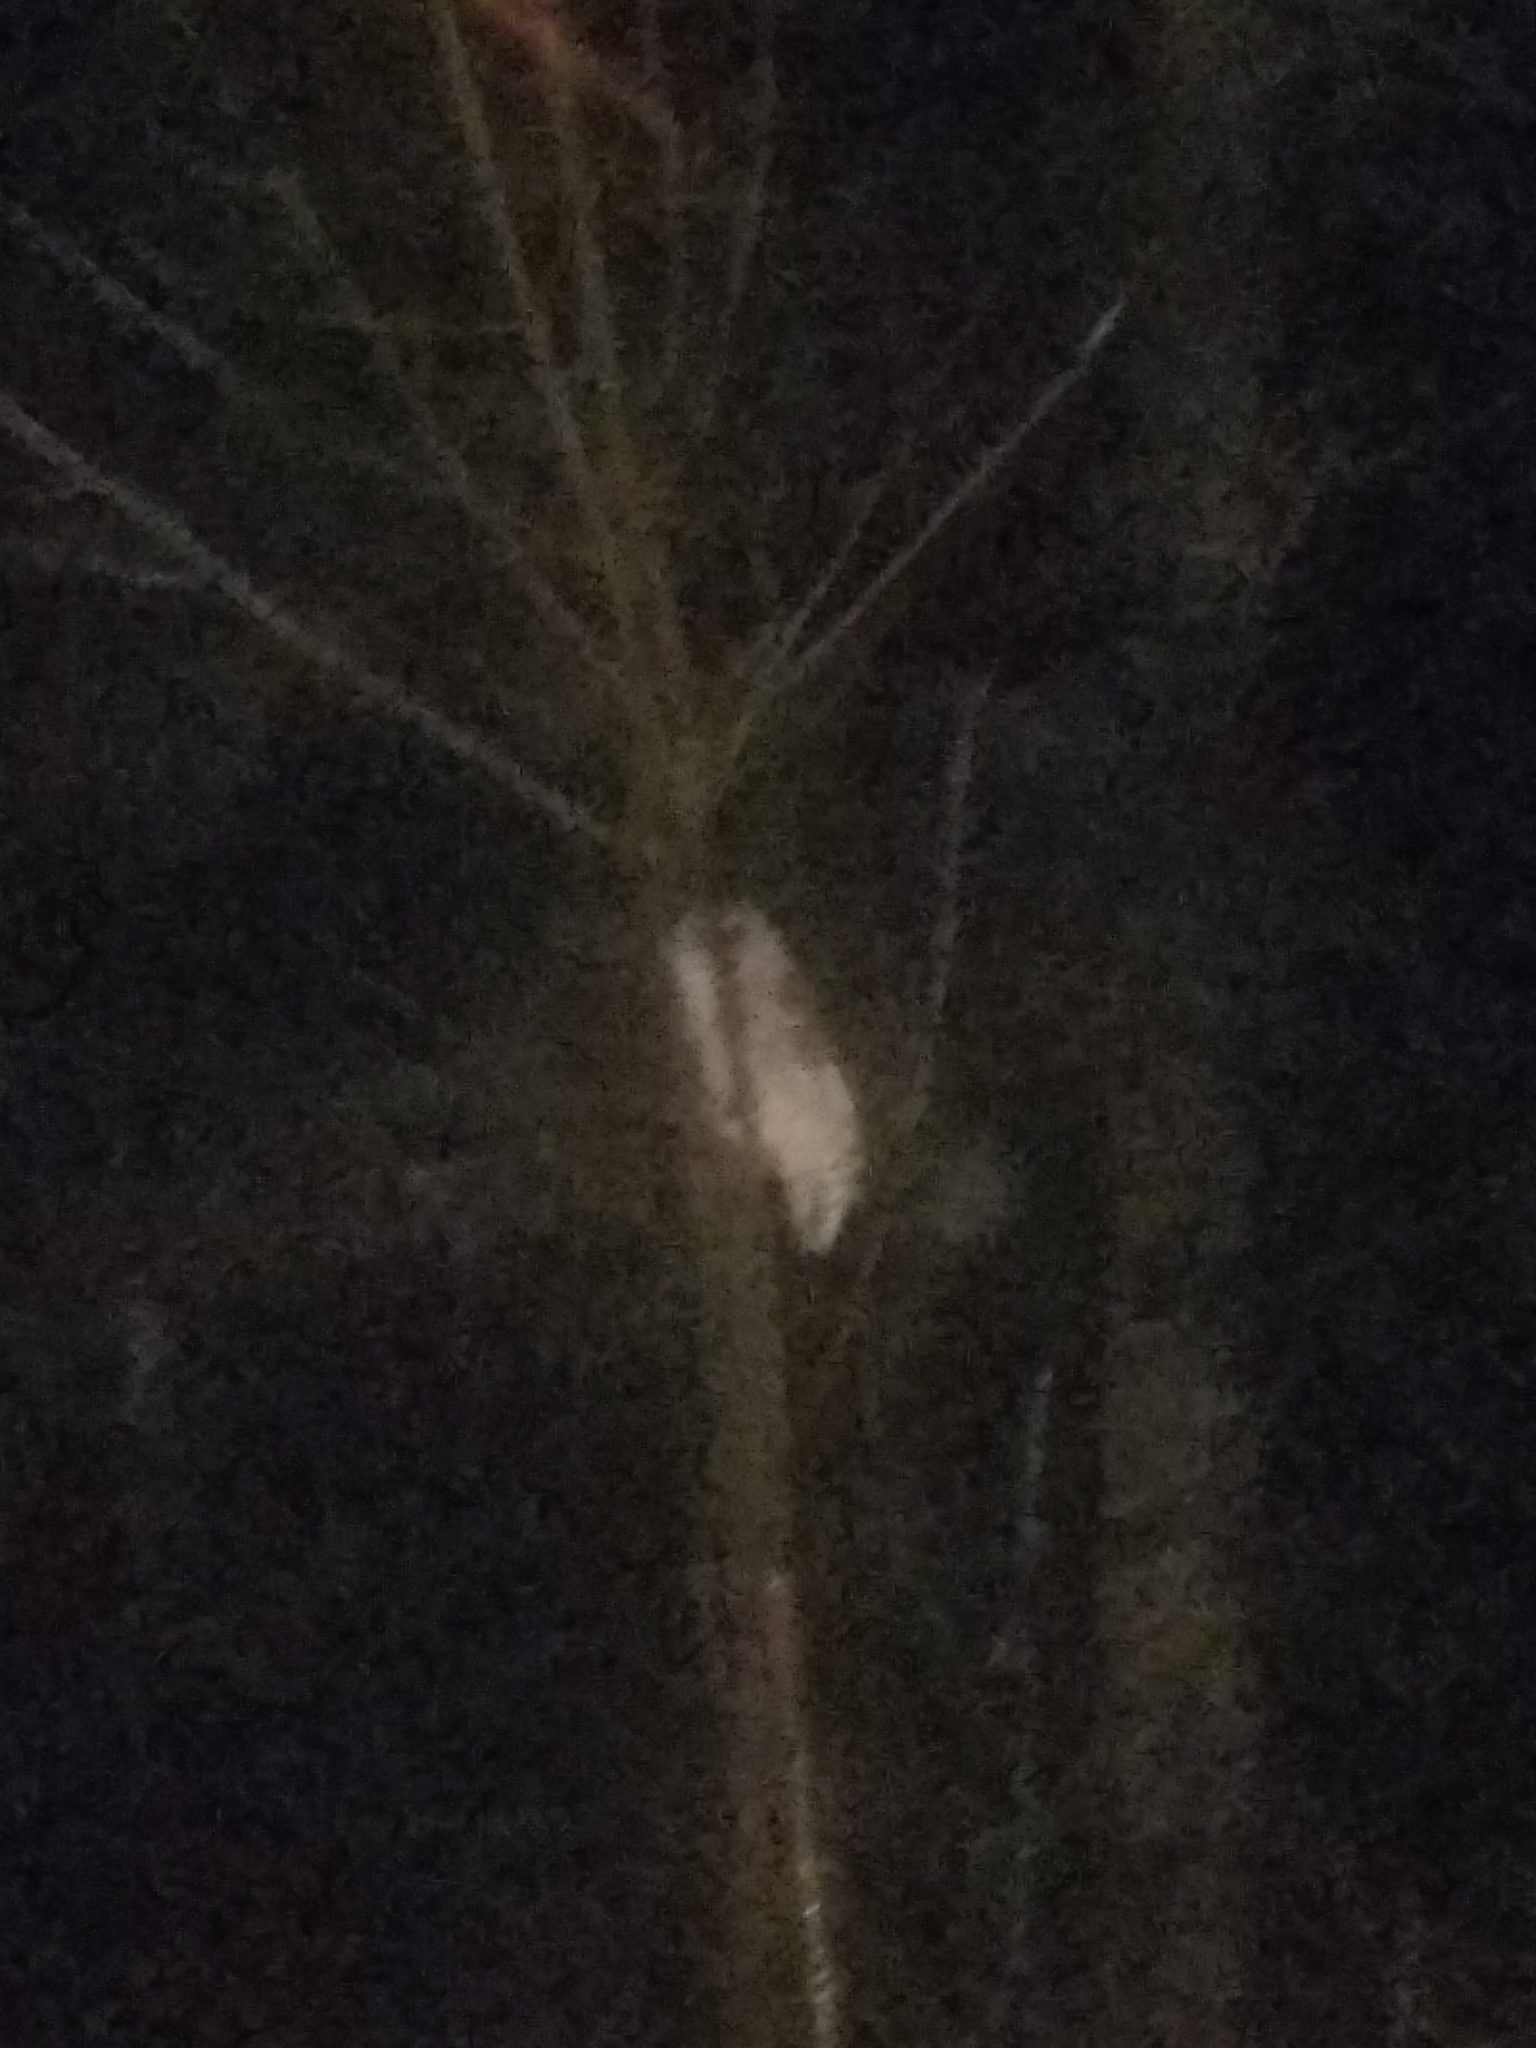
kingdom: Animalia
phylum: Chordata
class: Aves
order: Strigiformes
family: Strigidae
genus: Strix
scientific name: Strix varia
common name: Barred owl
